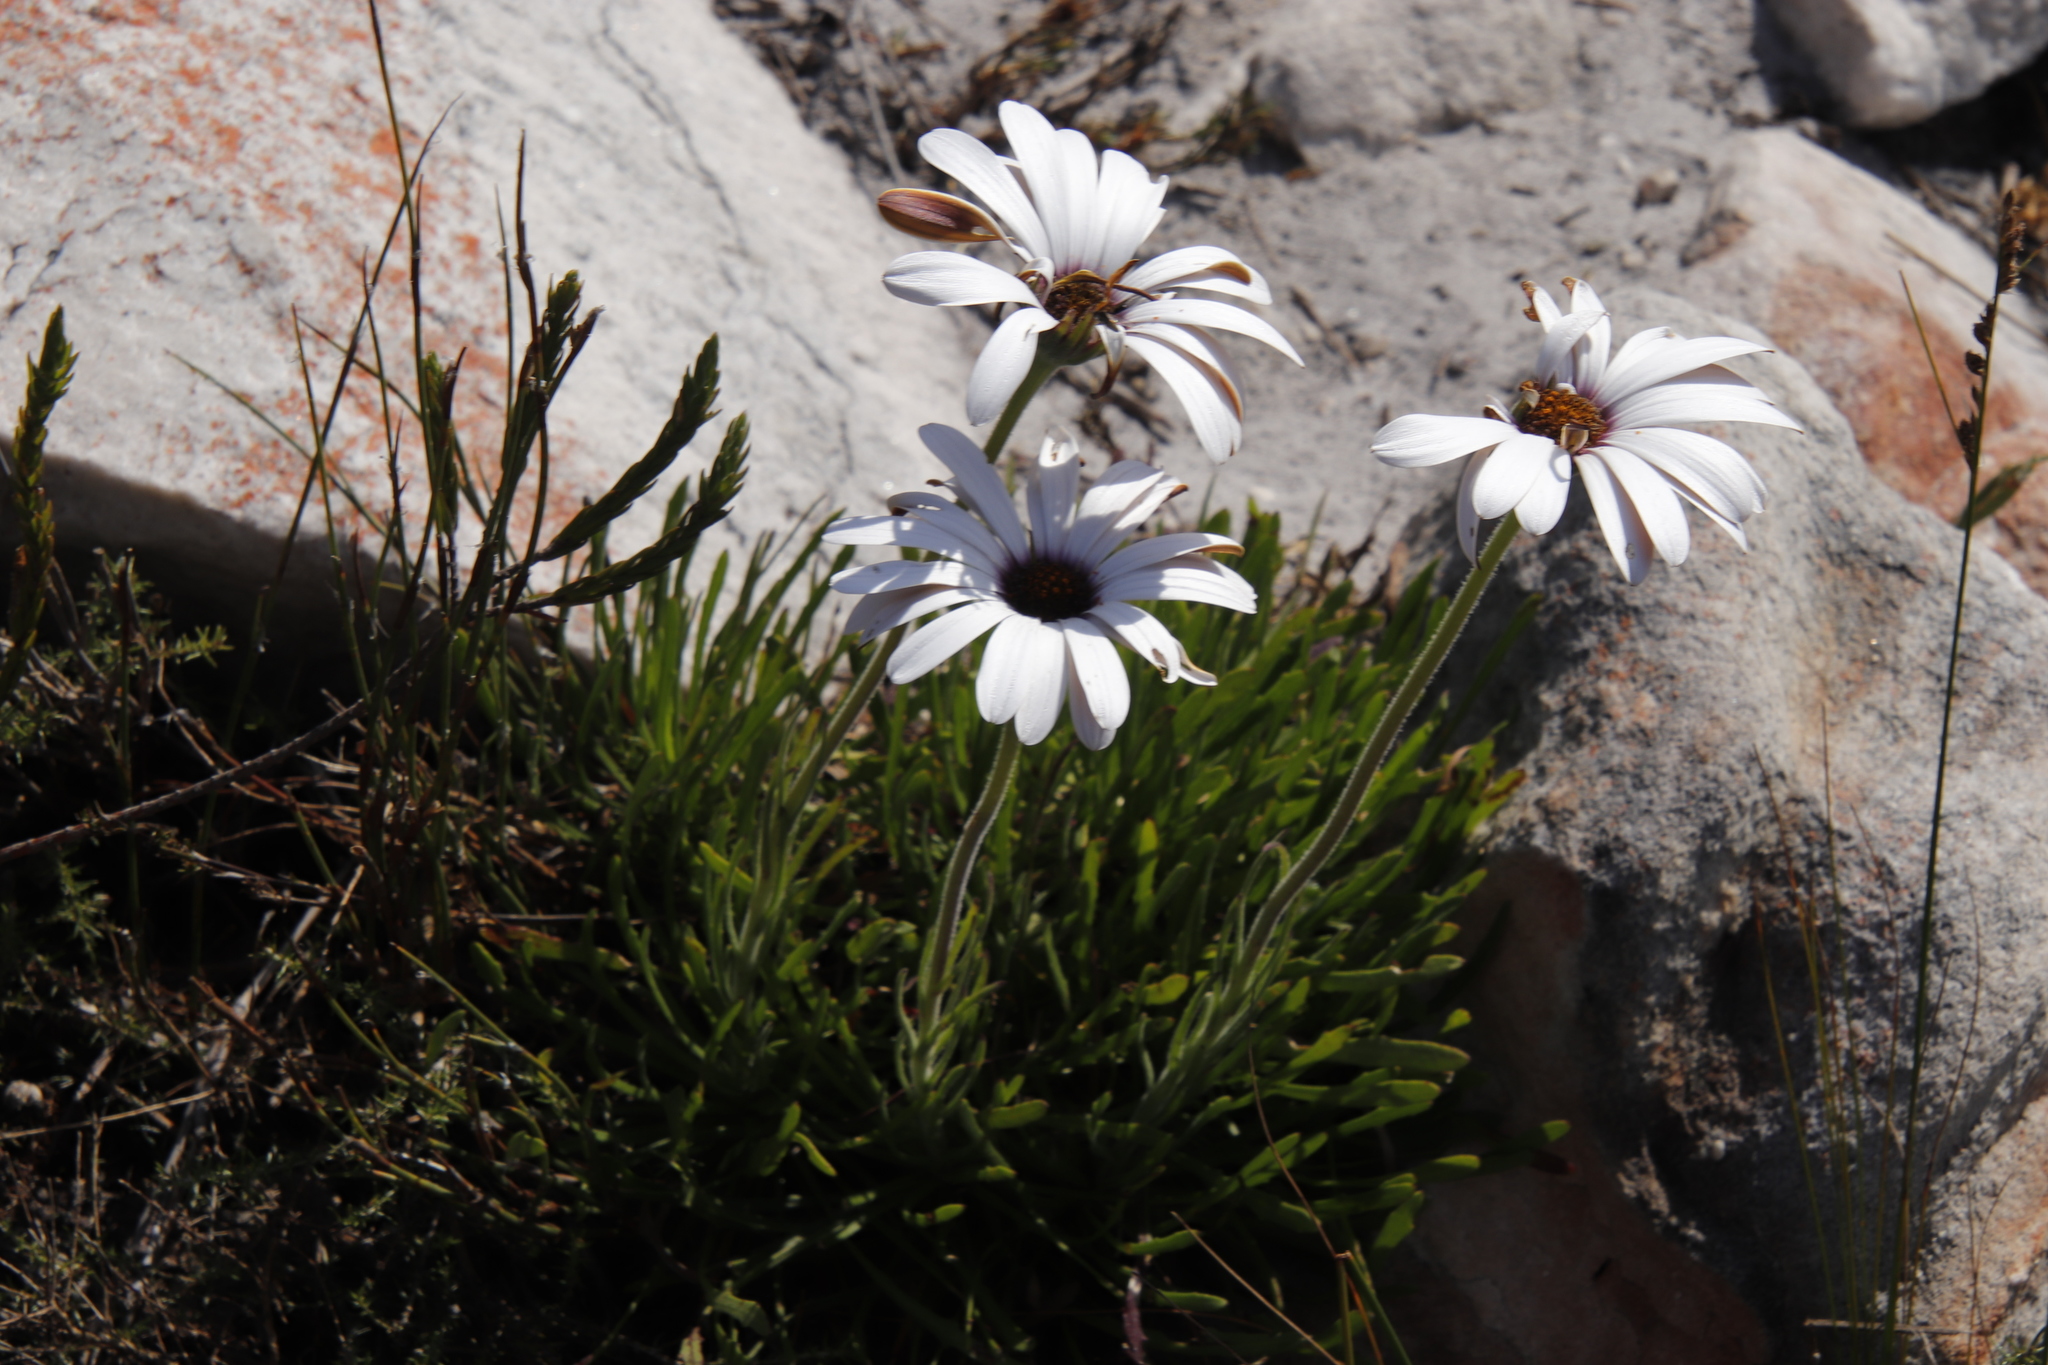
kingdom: Plantae
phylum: Tracheophyta
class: Magnoliopsida
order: Asterales
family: Asteraceae
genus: Dimorphotheca
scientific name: Dimorphotheca nudicaulis
